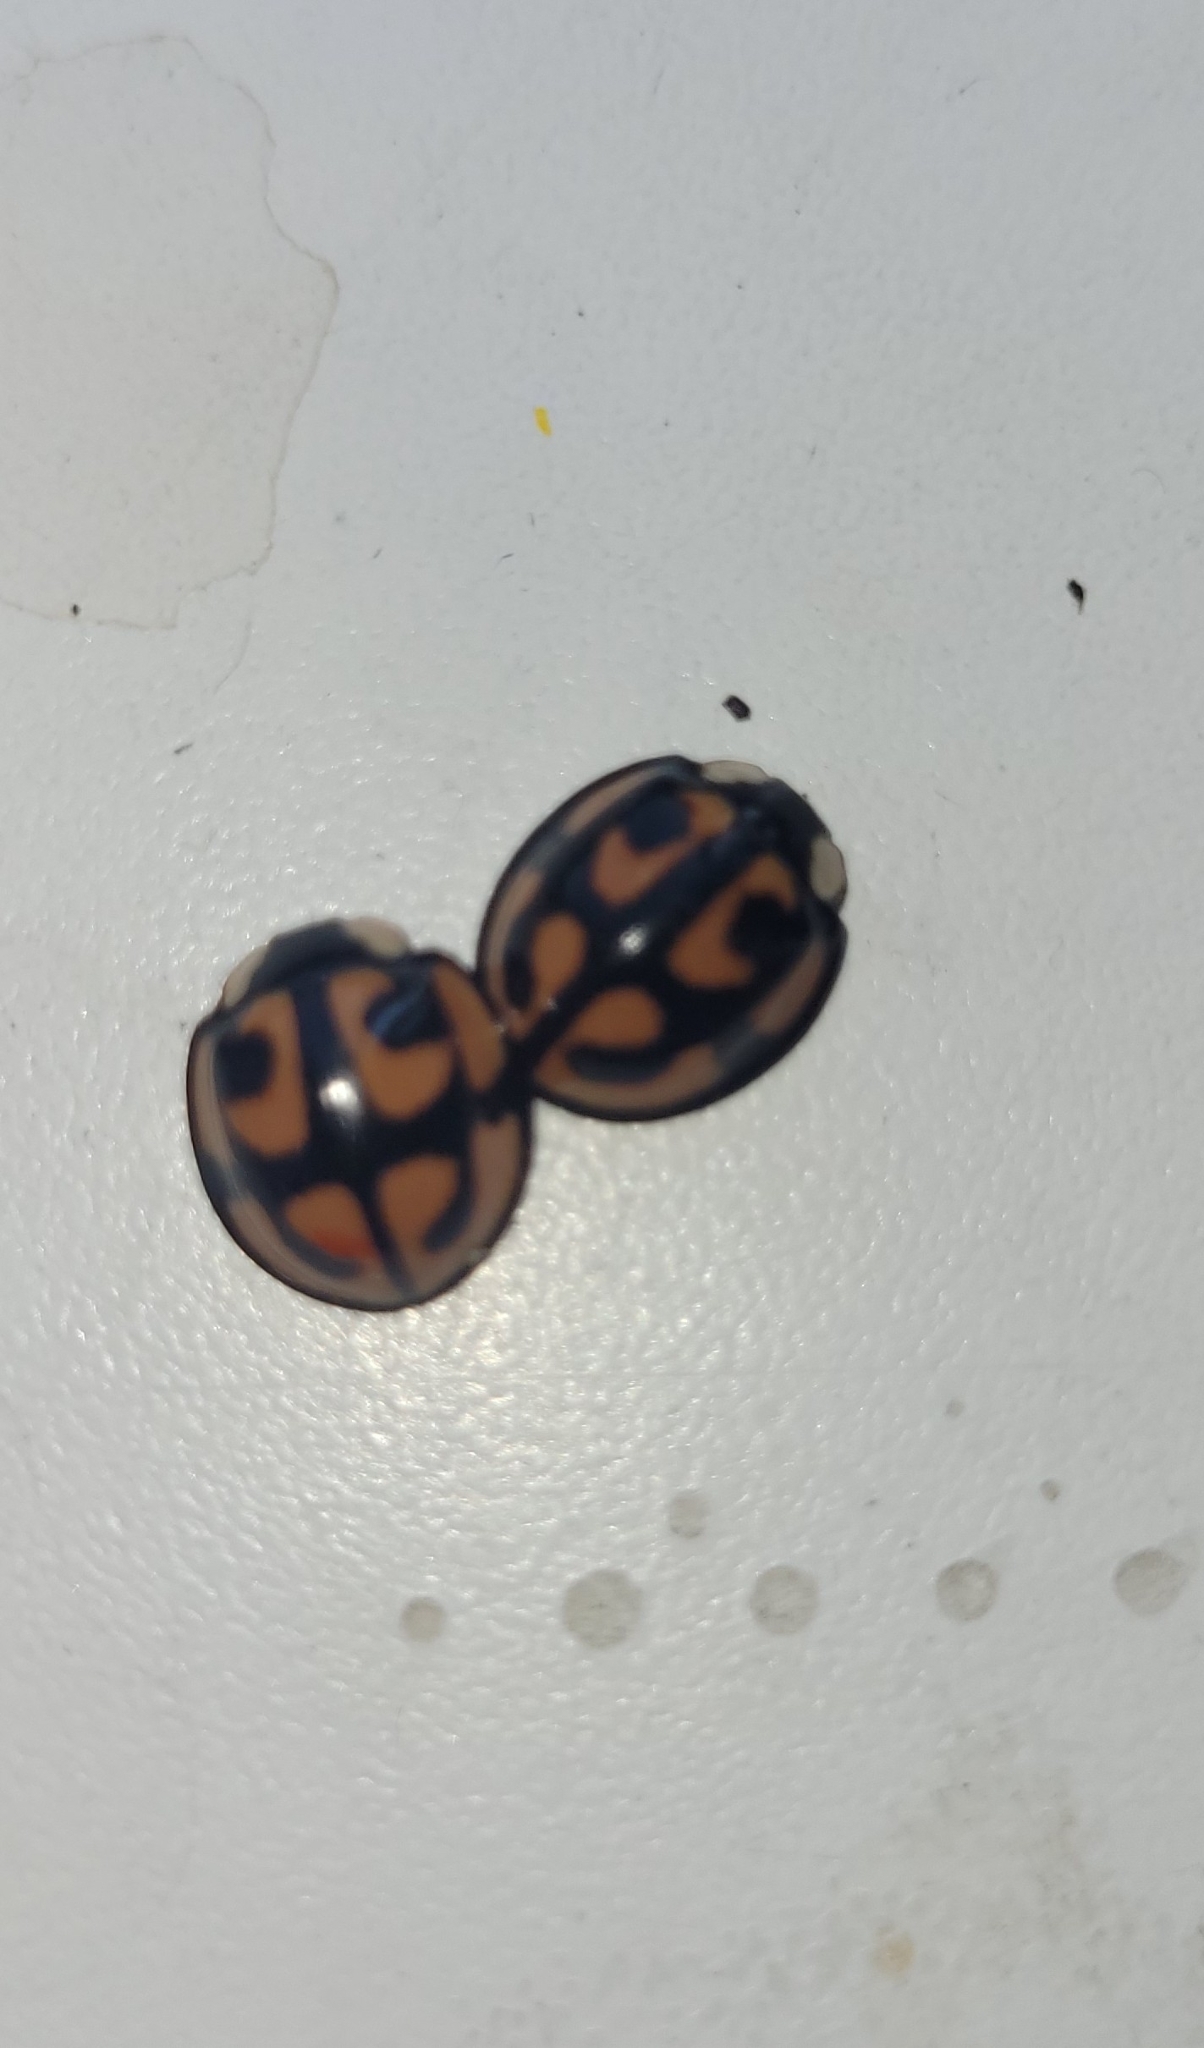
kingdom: Animalia
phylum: Arthropoda
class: Insecta
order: Coleoptera
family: Coccinellidae
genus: Aiolocaria
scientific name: Aiolocaria hexaspilota
